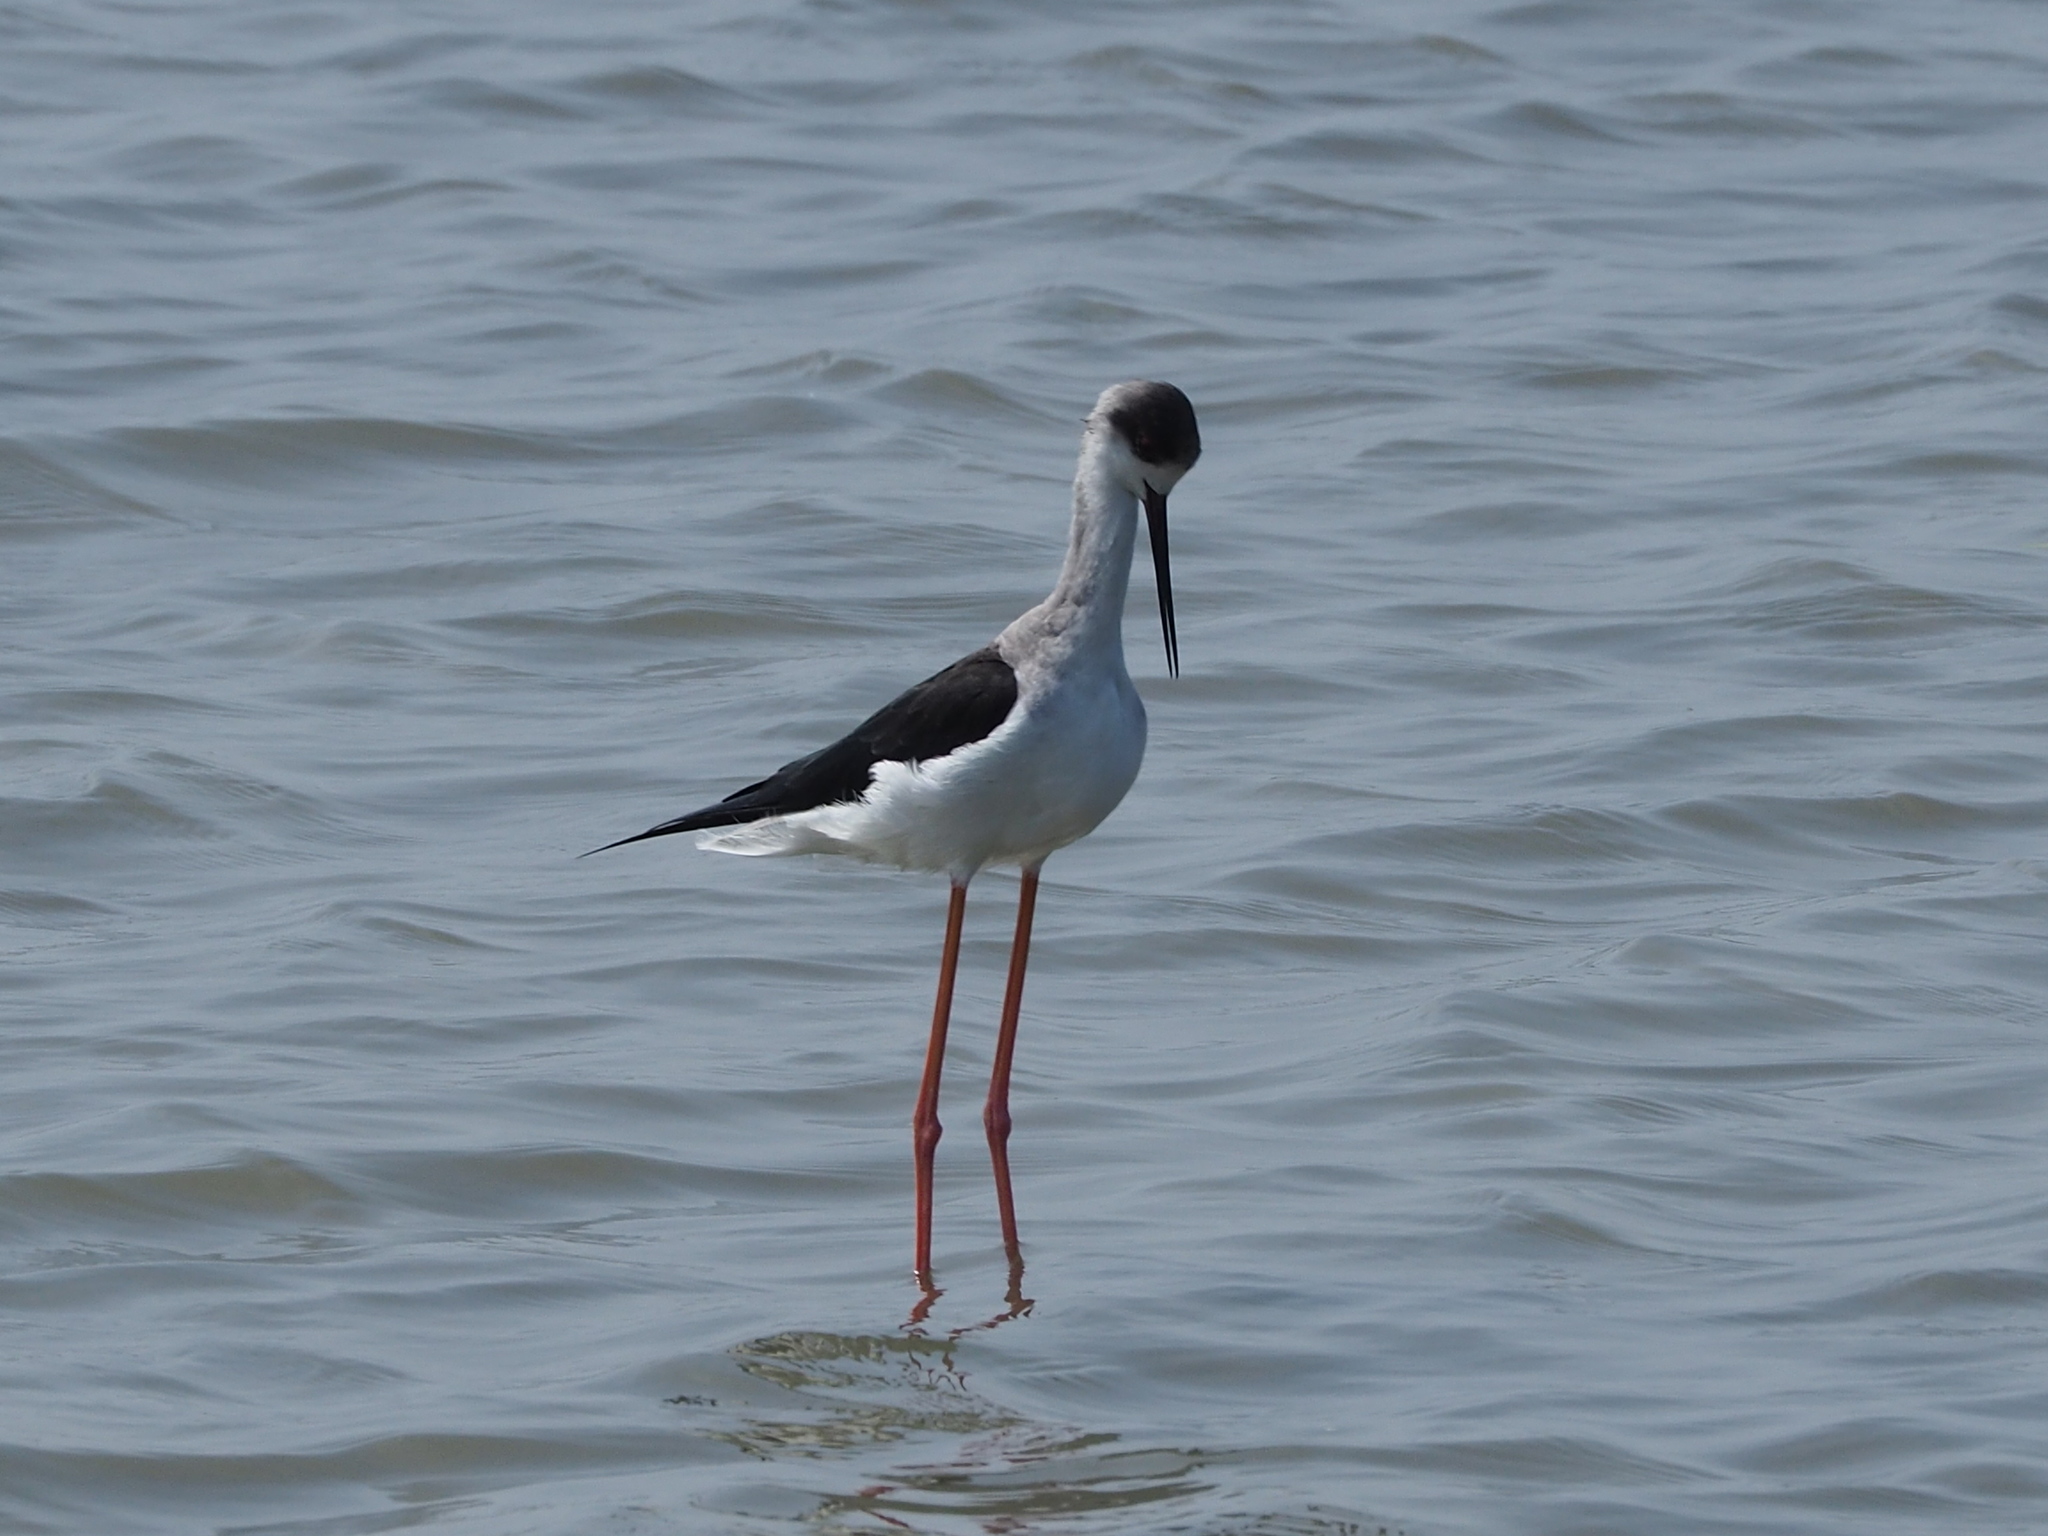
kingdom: Animalia
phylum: Chordata
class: Aves
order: Charadriiformes
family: Recurvirostridae
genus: Himantopus
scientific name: Himantopus himantopus
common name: Black-winged stilt
